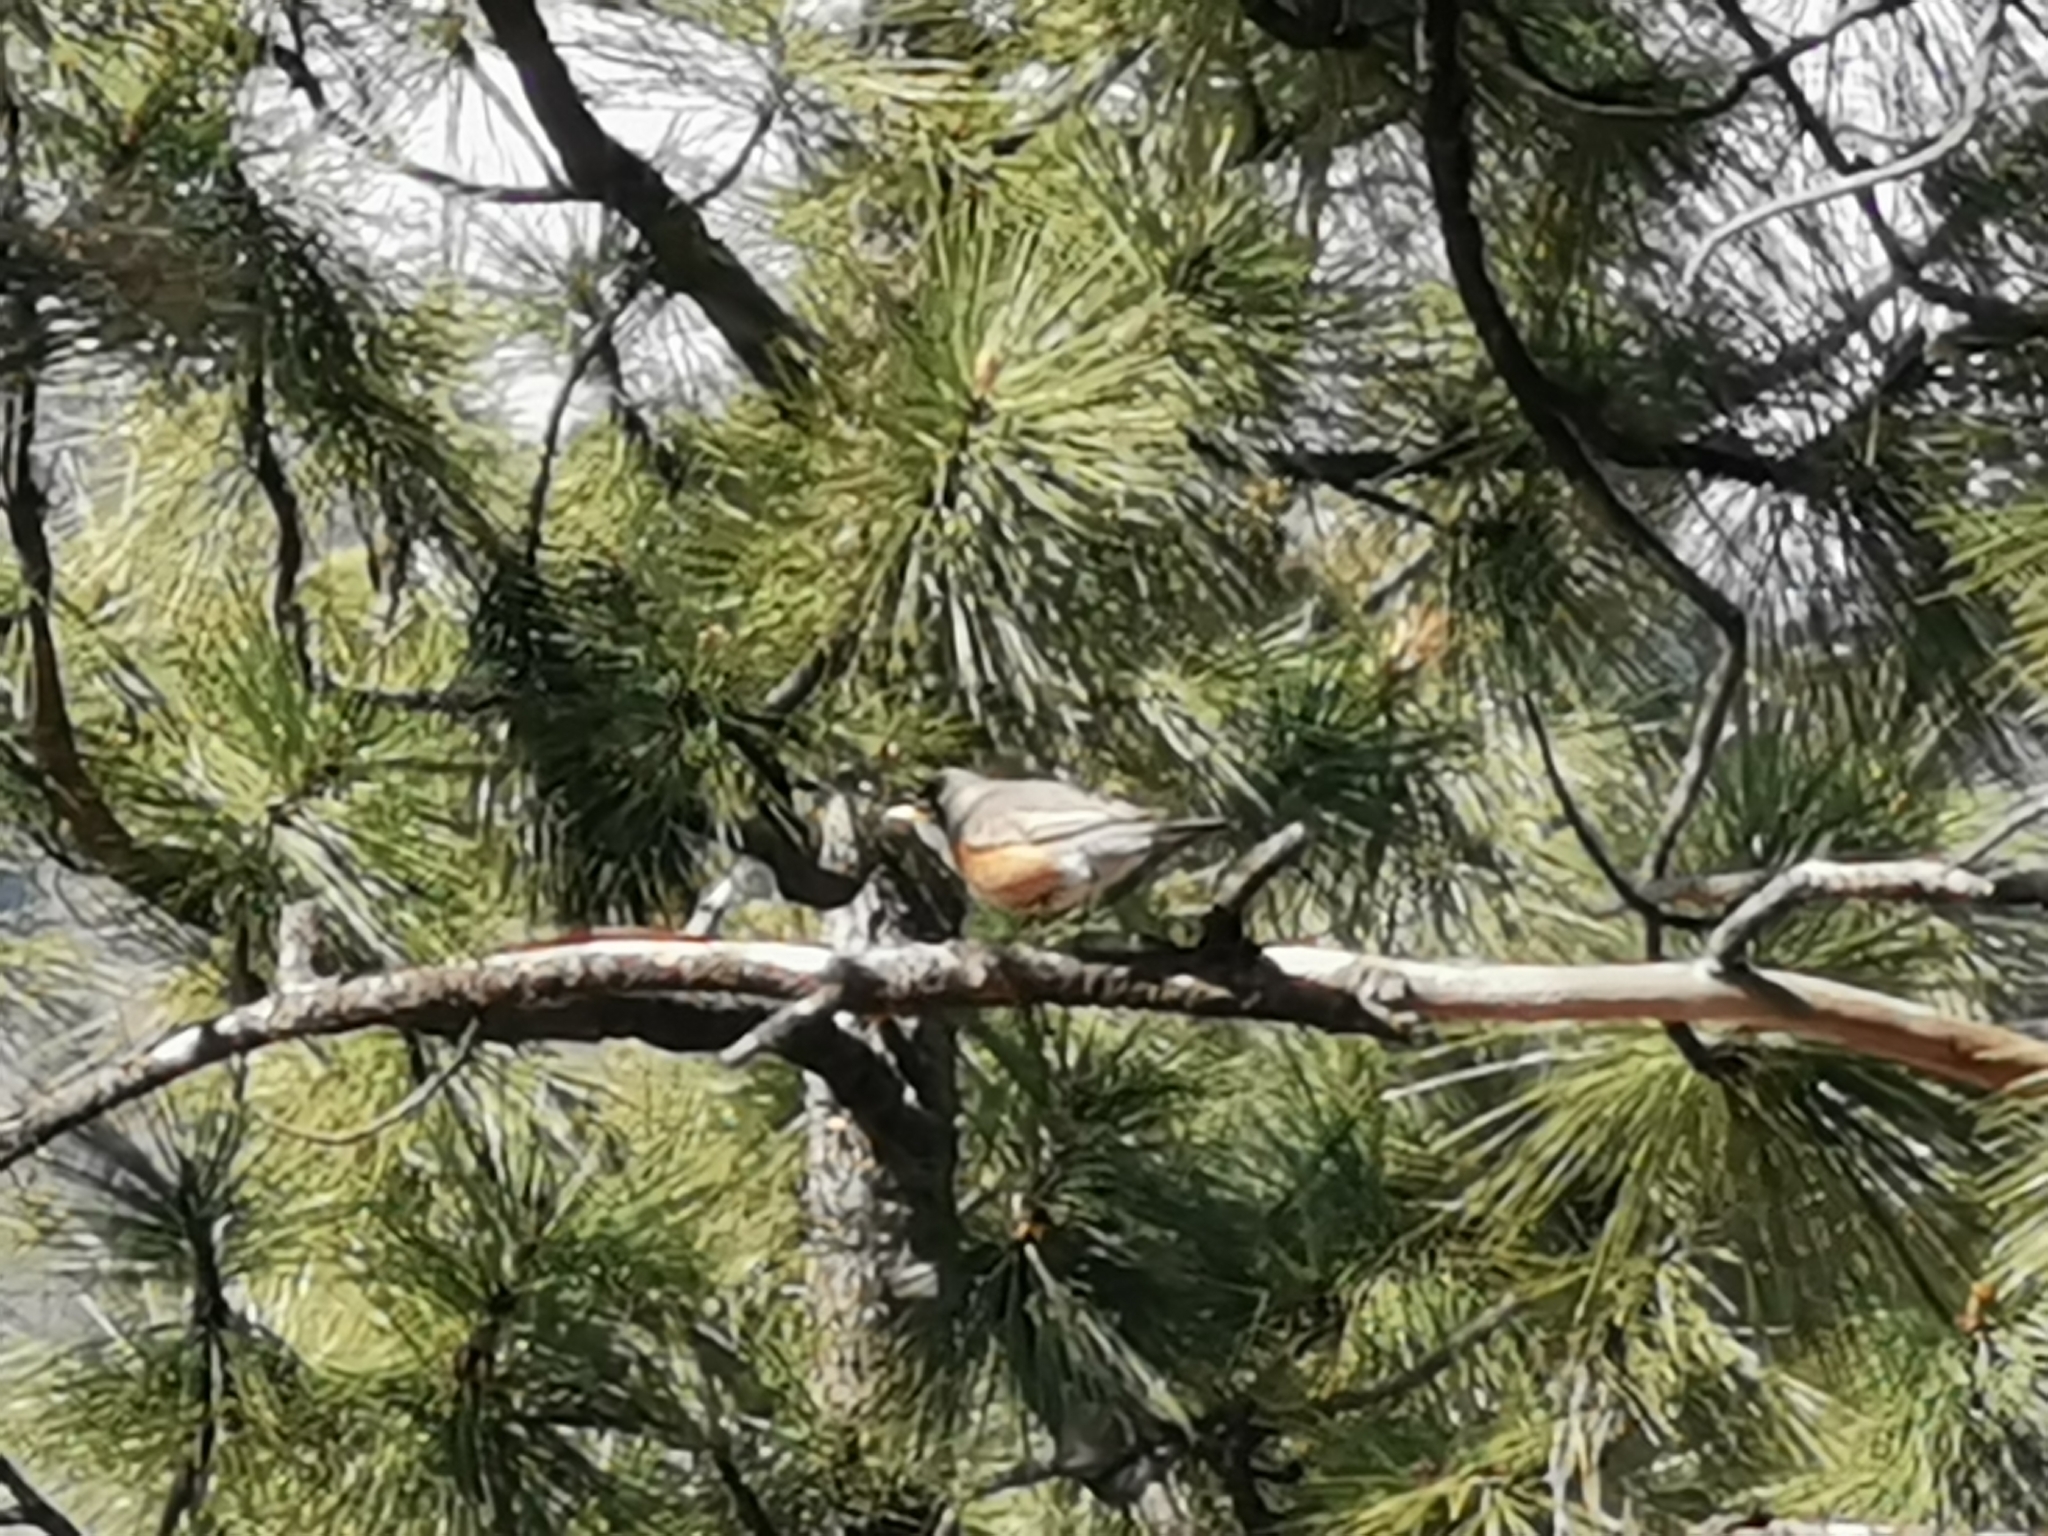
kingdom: Animalia
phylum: Chordata
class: Aves
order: Passeriformes
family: Turdidae
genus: Turdus
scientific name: Turdus migratorius
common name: American robin
